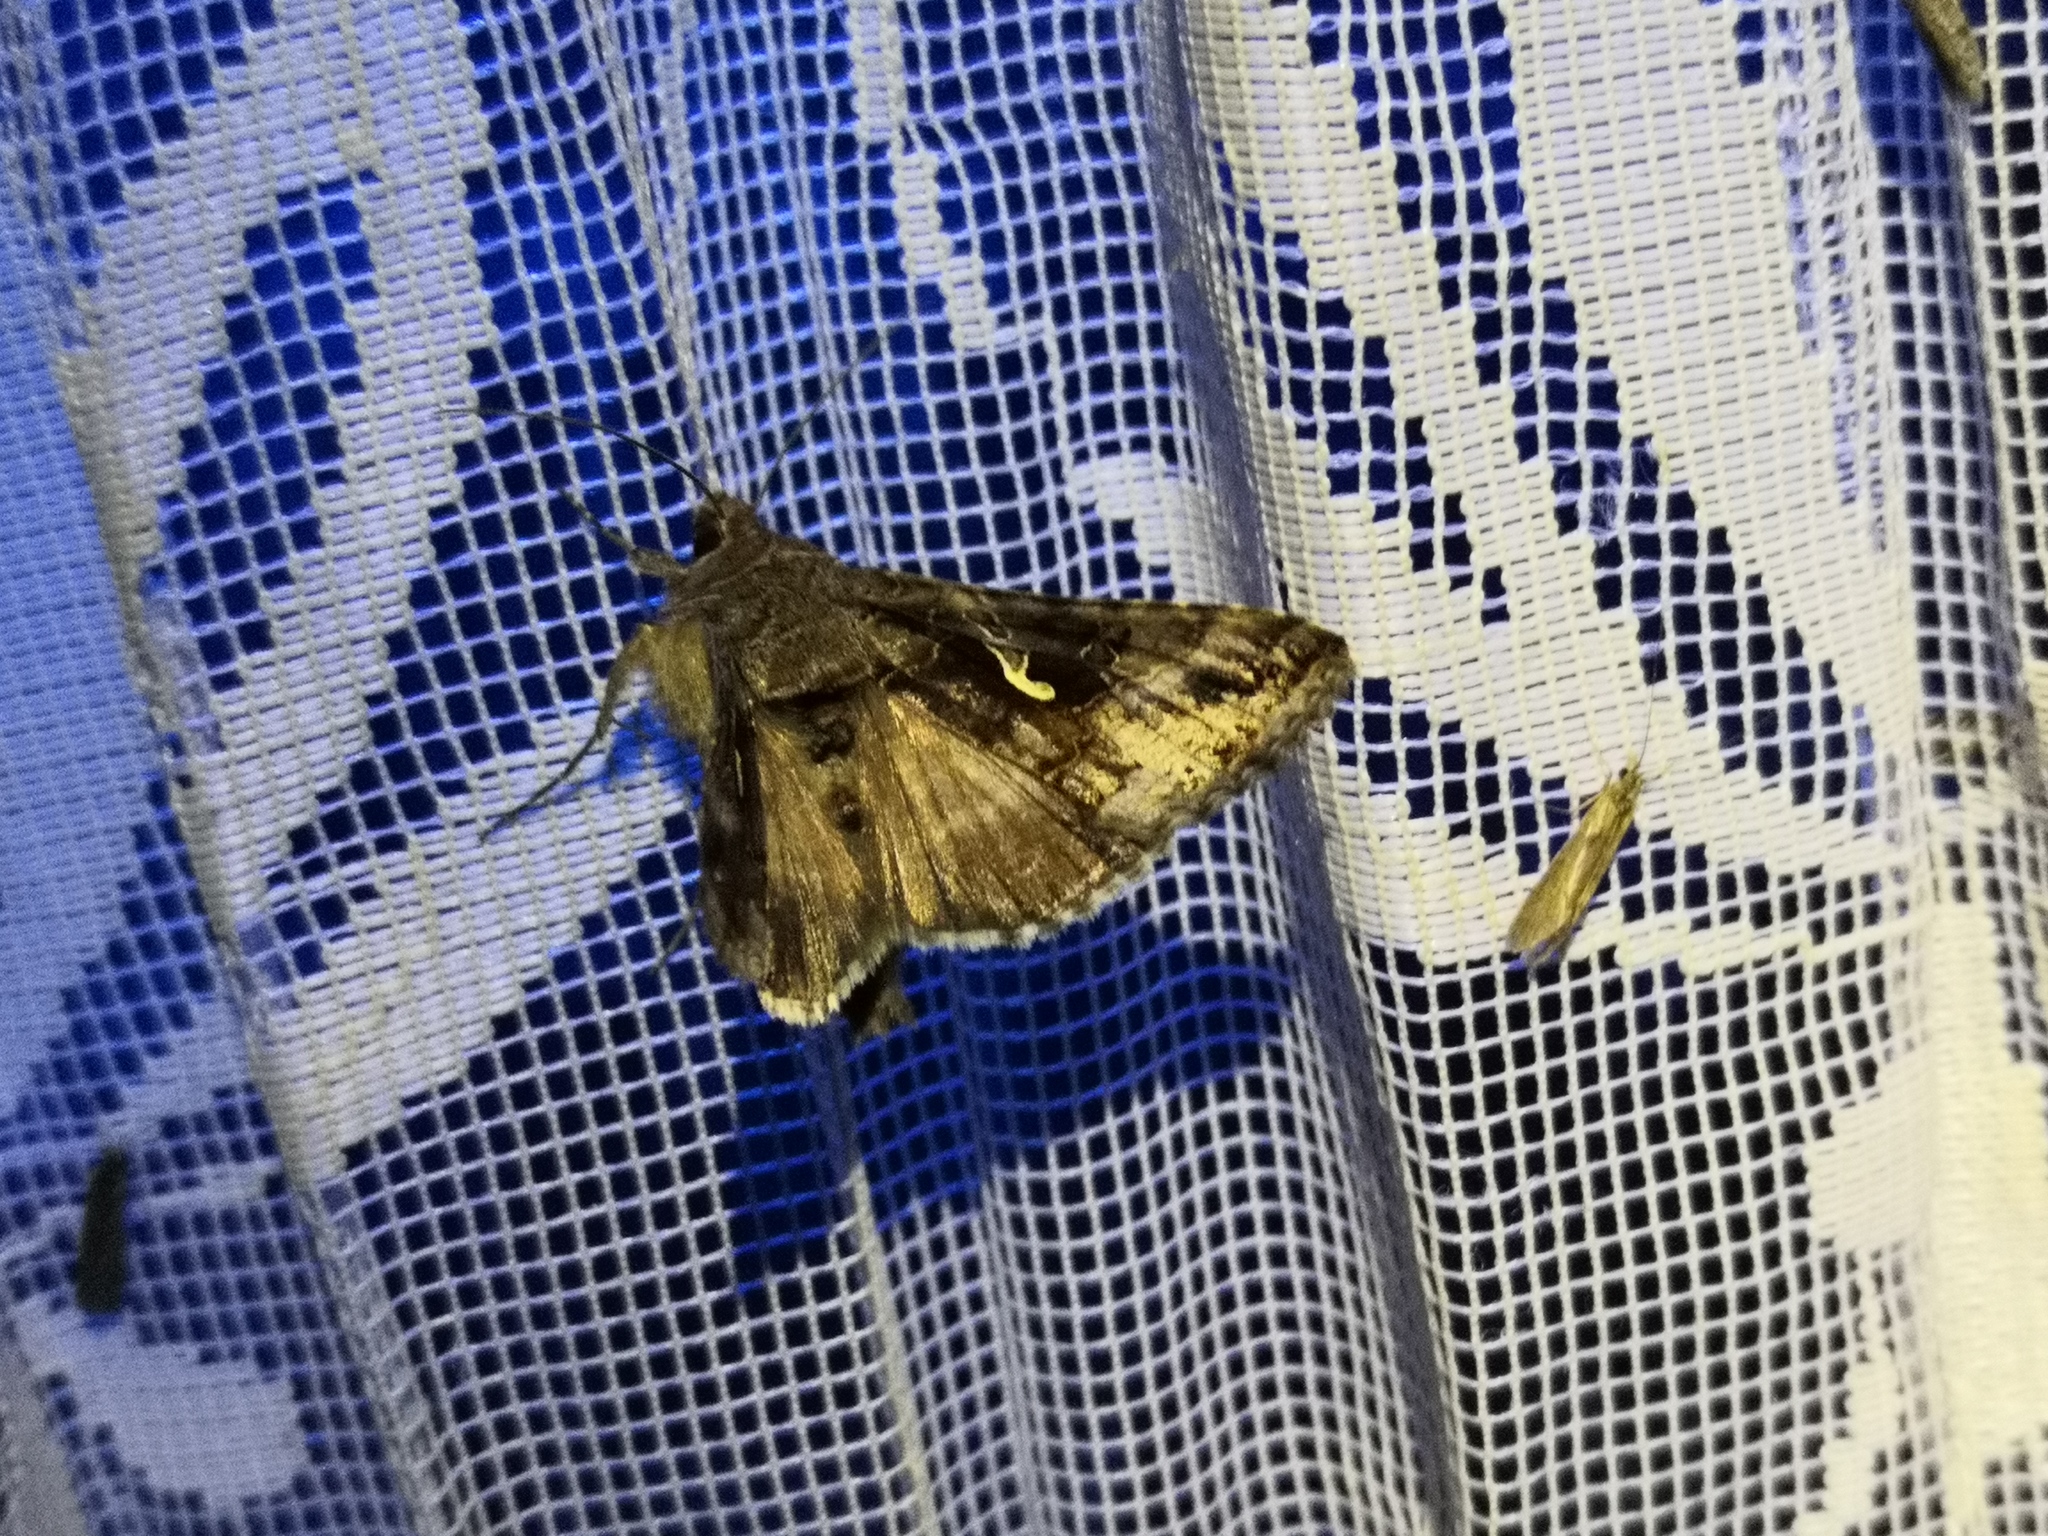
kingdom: Animalia
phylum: Arthropoda
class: Insecta
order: Lepidoptera
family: Noctuidae
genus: Autographa
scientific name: Autographa gamma
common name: Silver y
